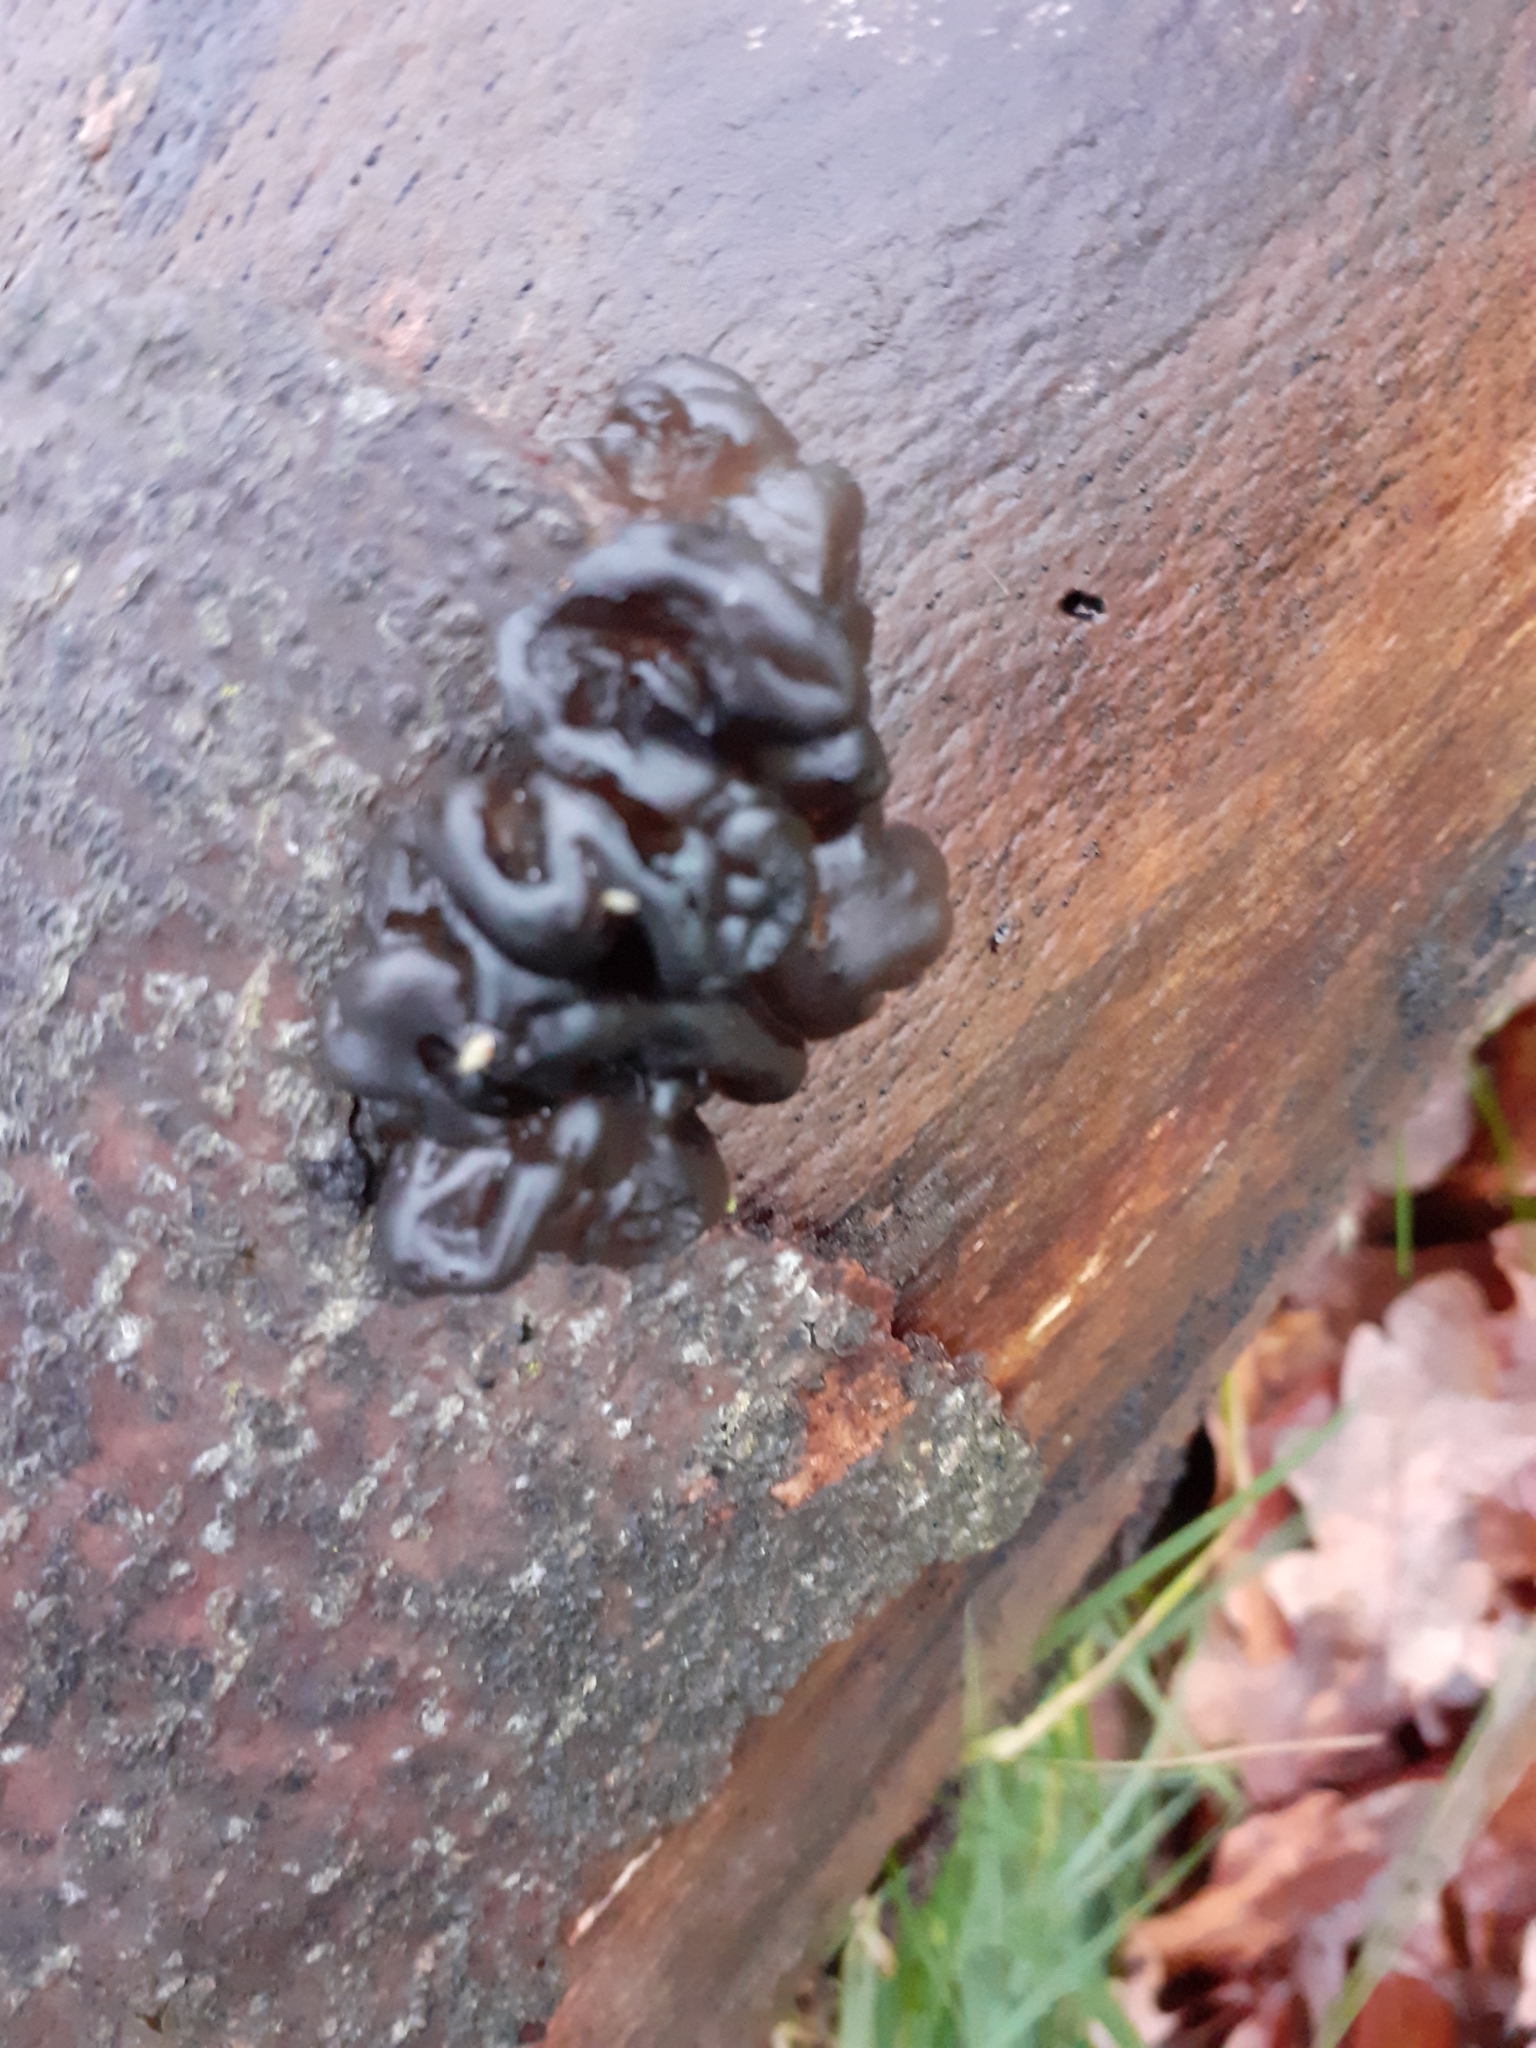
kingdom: Fungi
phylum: Basidiomycota
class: Agaricomycetes
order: Auriculariales
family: Auriculariaceae
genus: Exidia
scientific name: Exidia glandulosa
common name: Witches' butter
